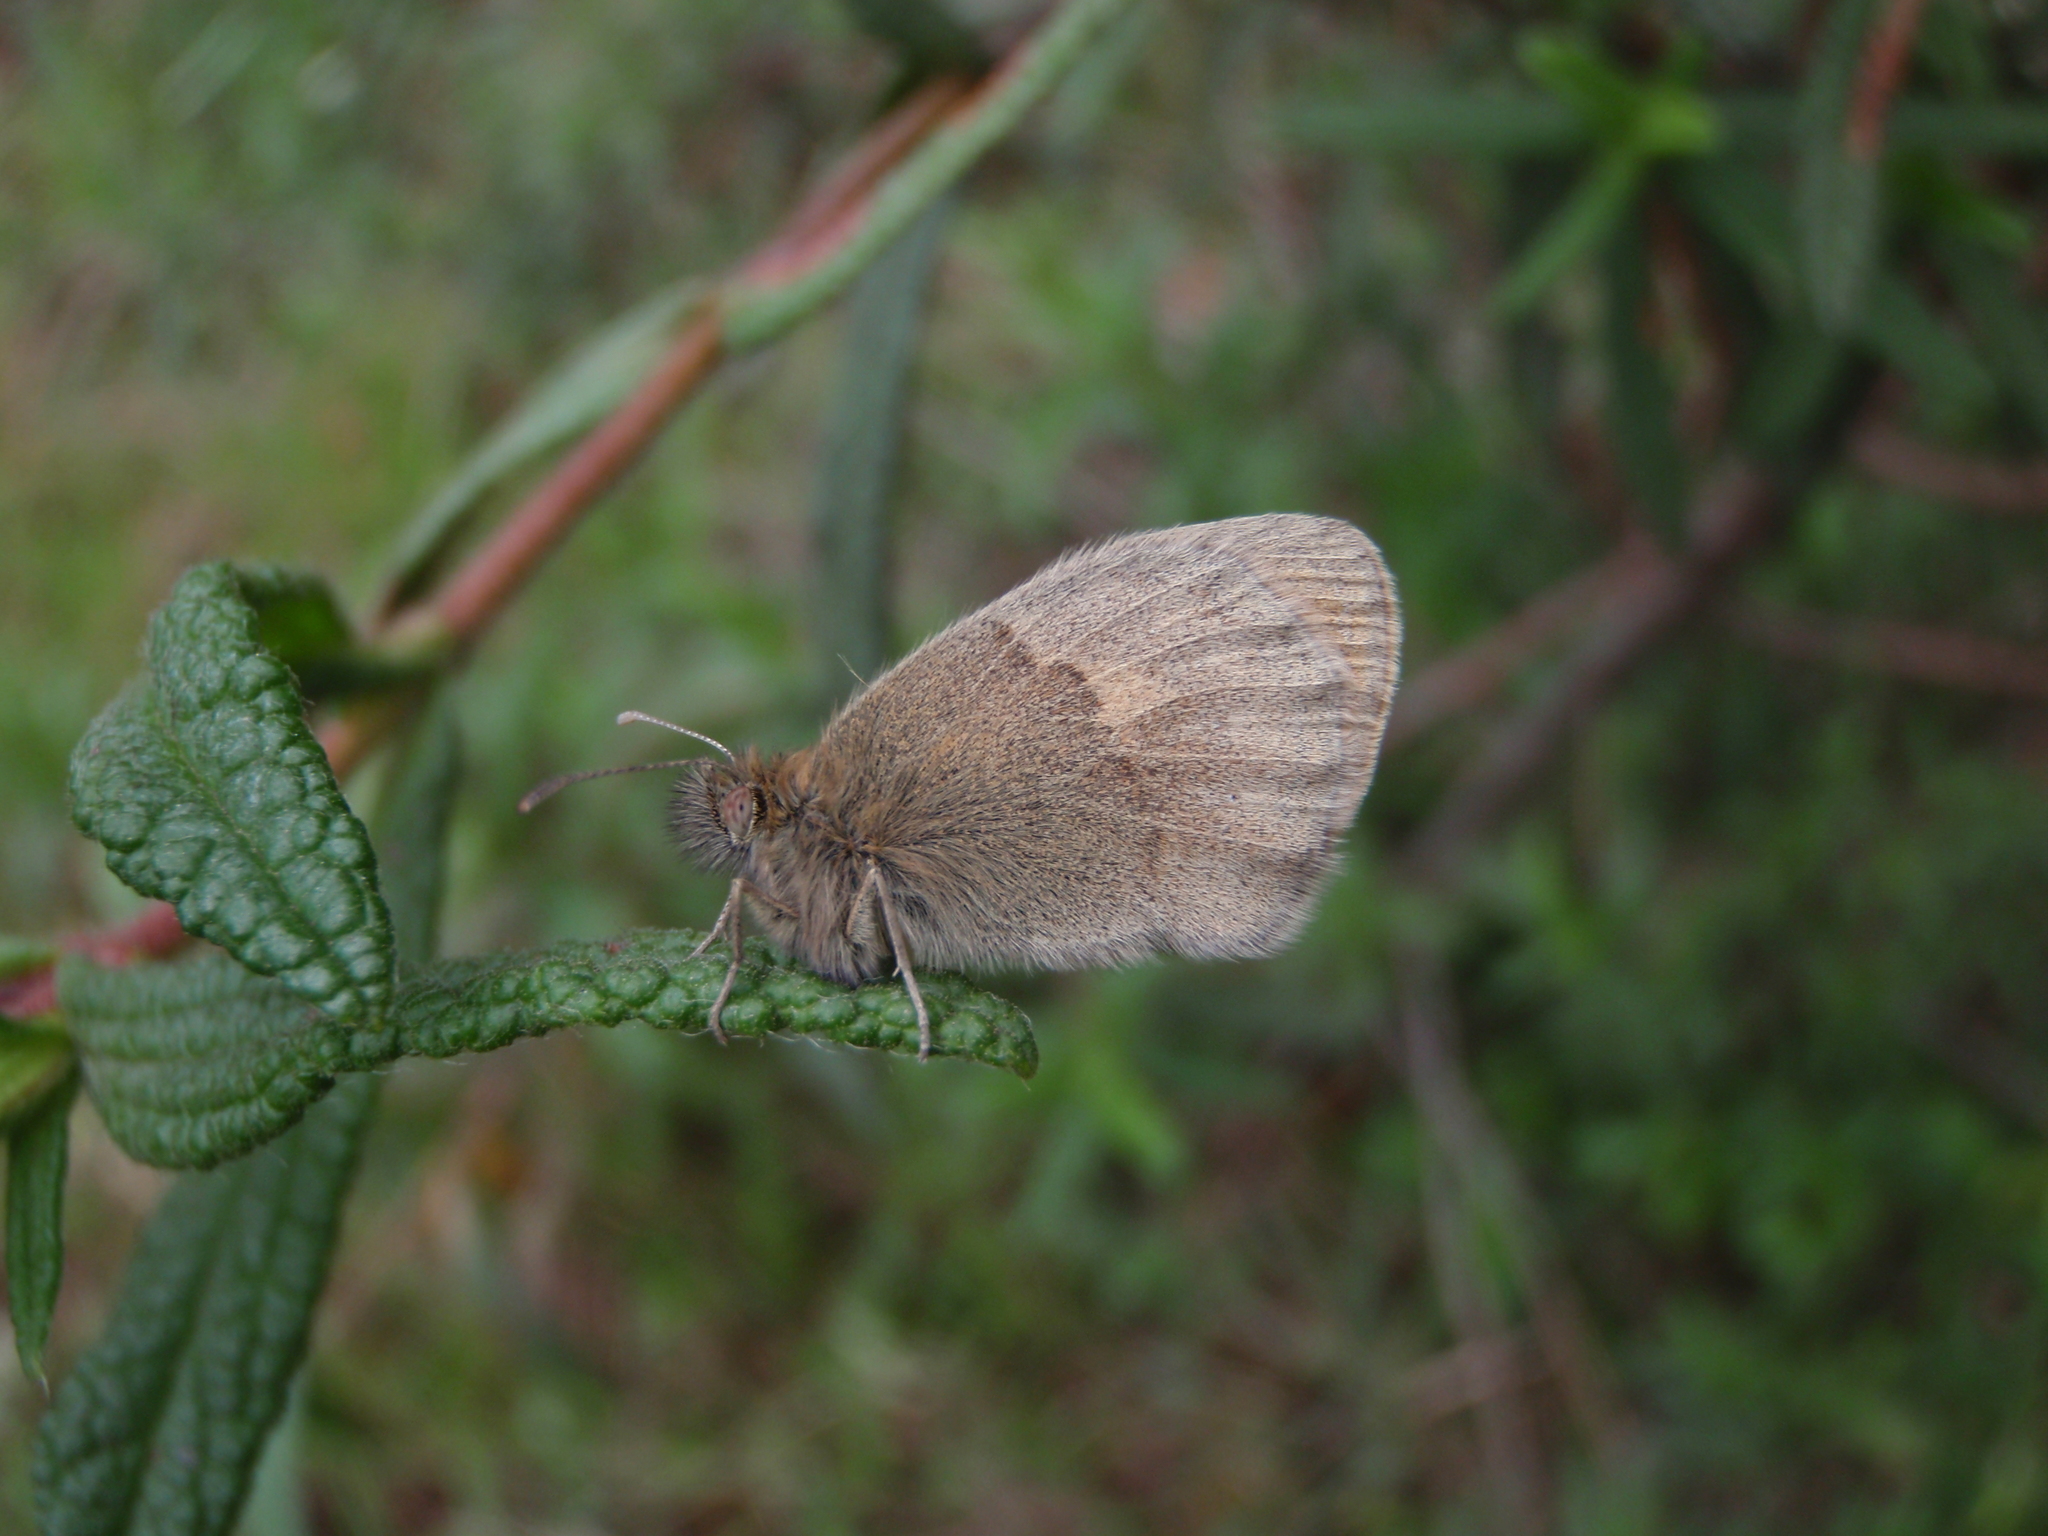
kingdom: Animalia
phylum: Arthropoda
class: Insecta
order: Lepidoptera
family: Nymphalidae
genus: Coenonympha
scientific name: Coenonympha pamphilus
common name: Small heath
